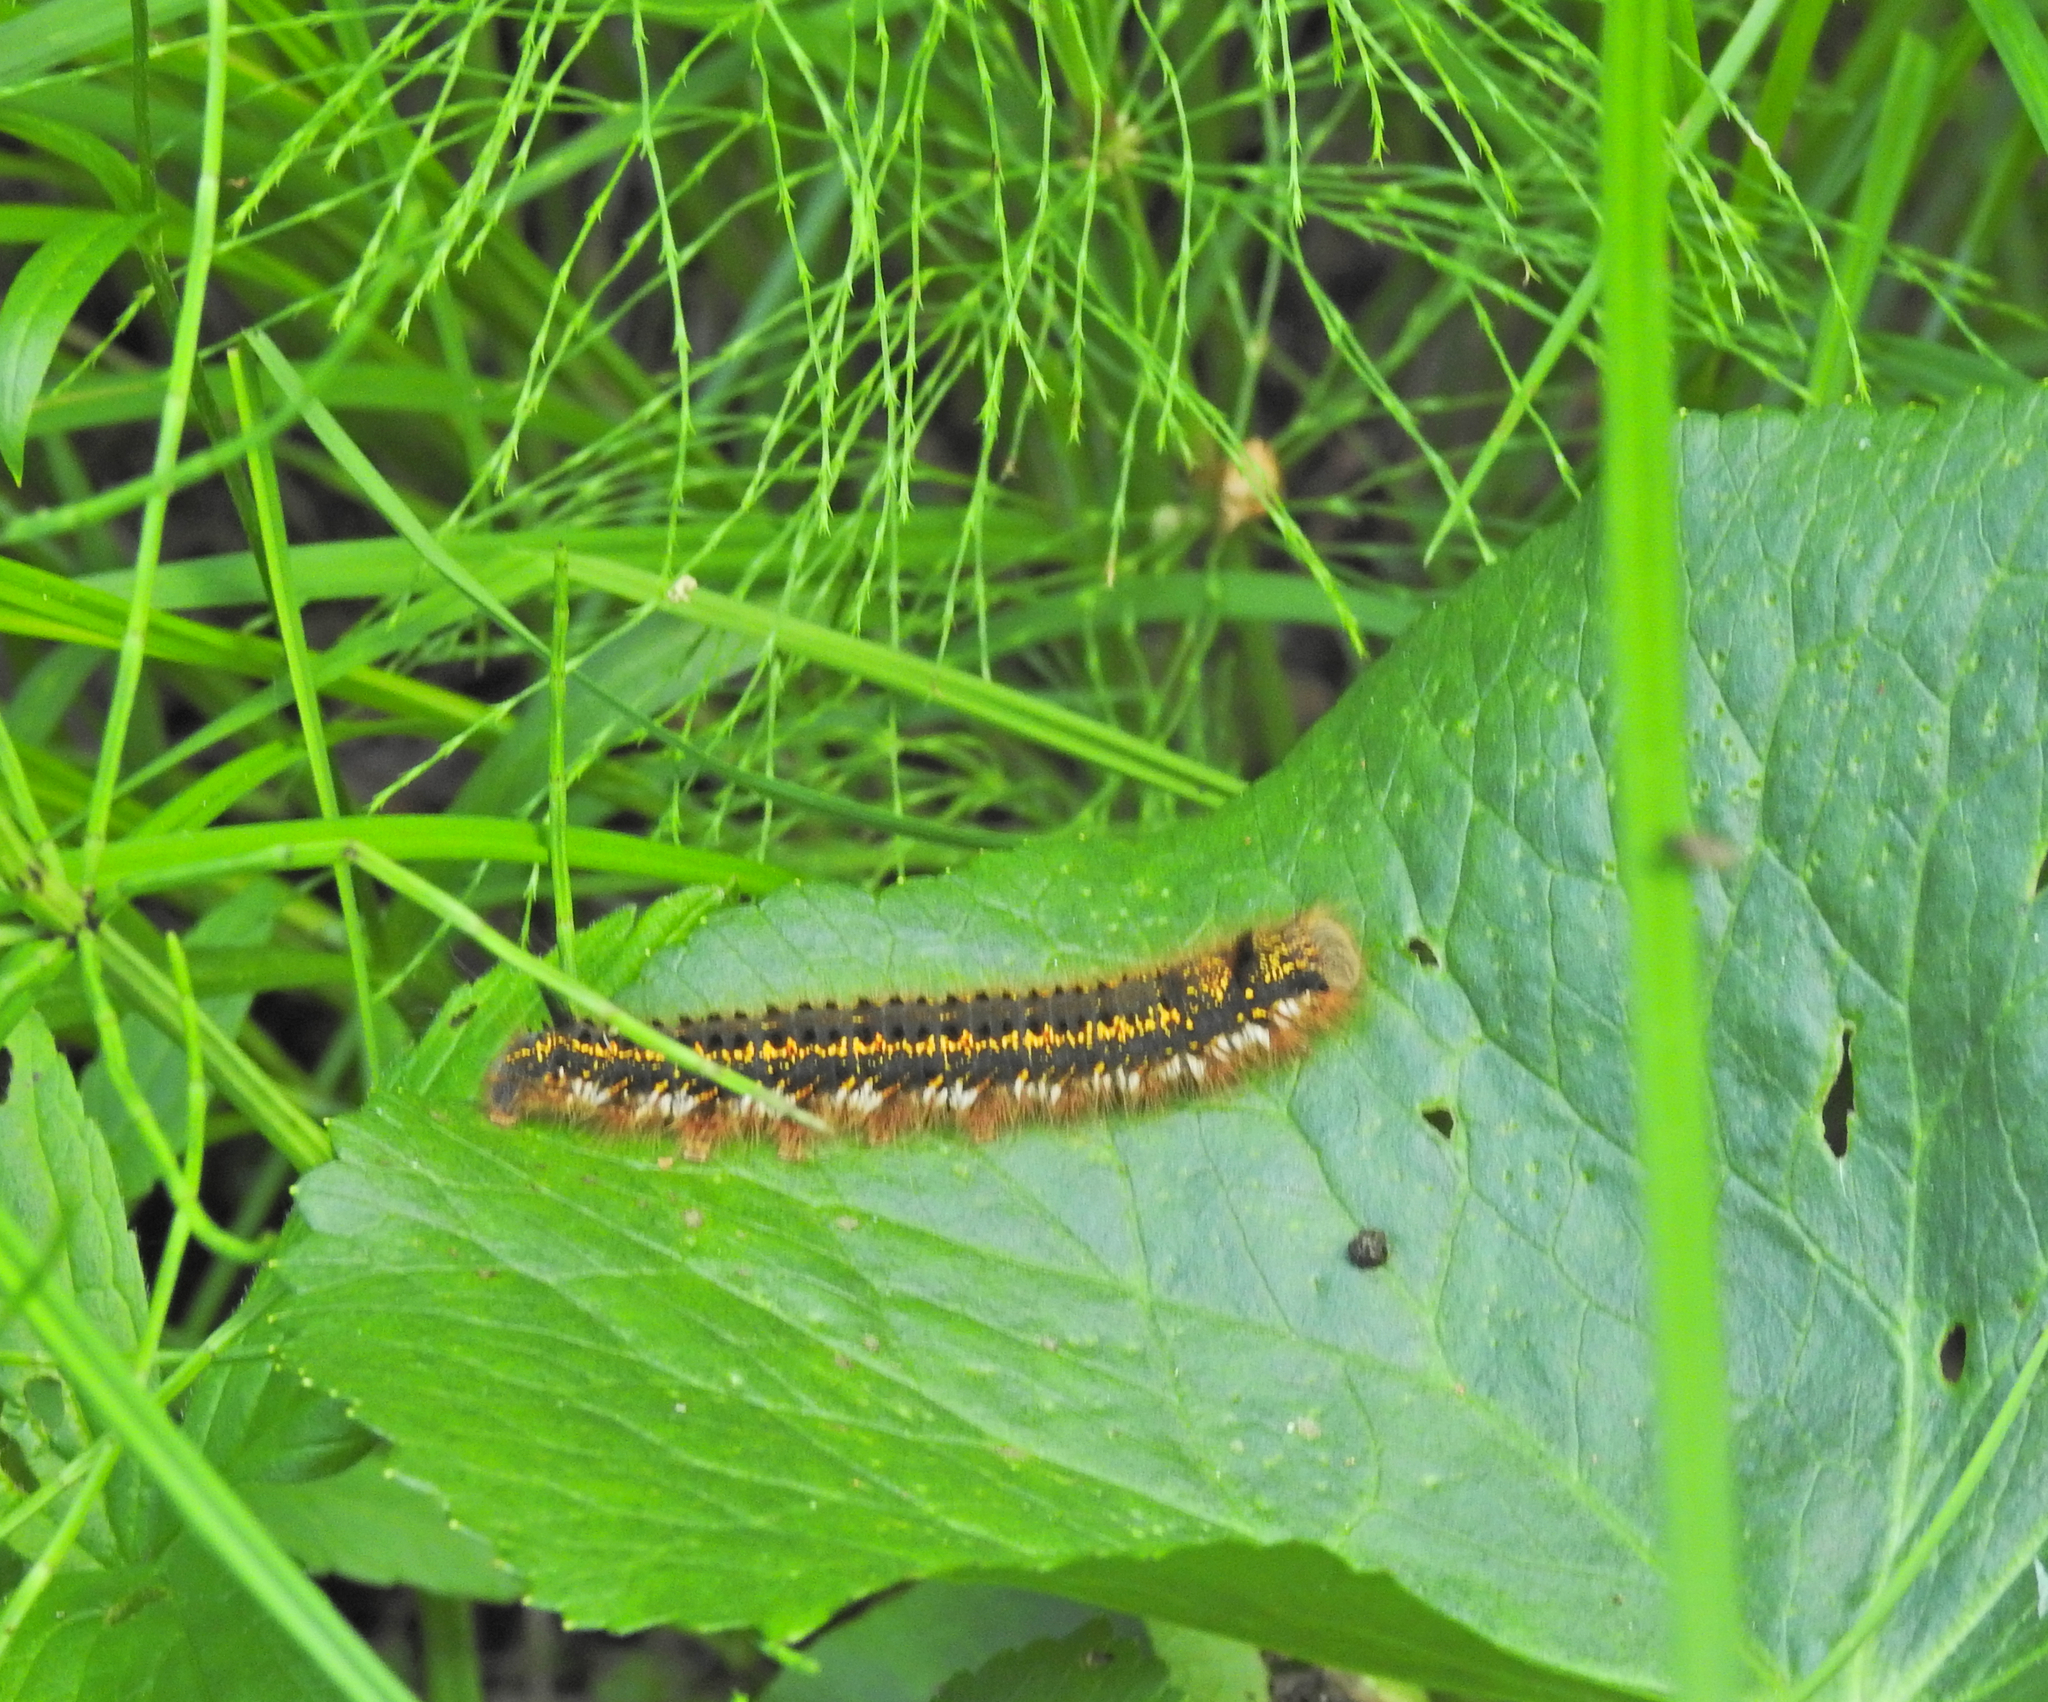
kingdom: Animalia
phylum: Arthropoda
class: Insecta
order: Lepidoptera
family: Lasiocampidae
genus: Euthrix
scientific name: Euthrix potatoria
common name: Drinker
